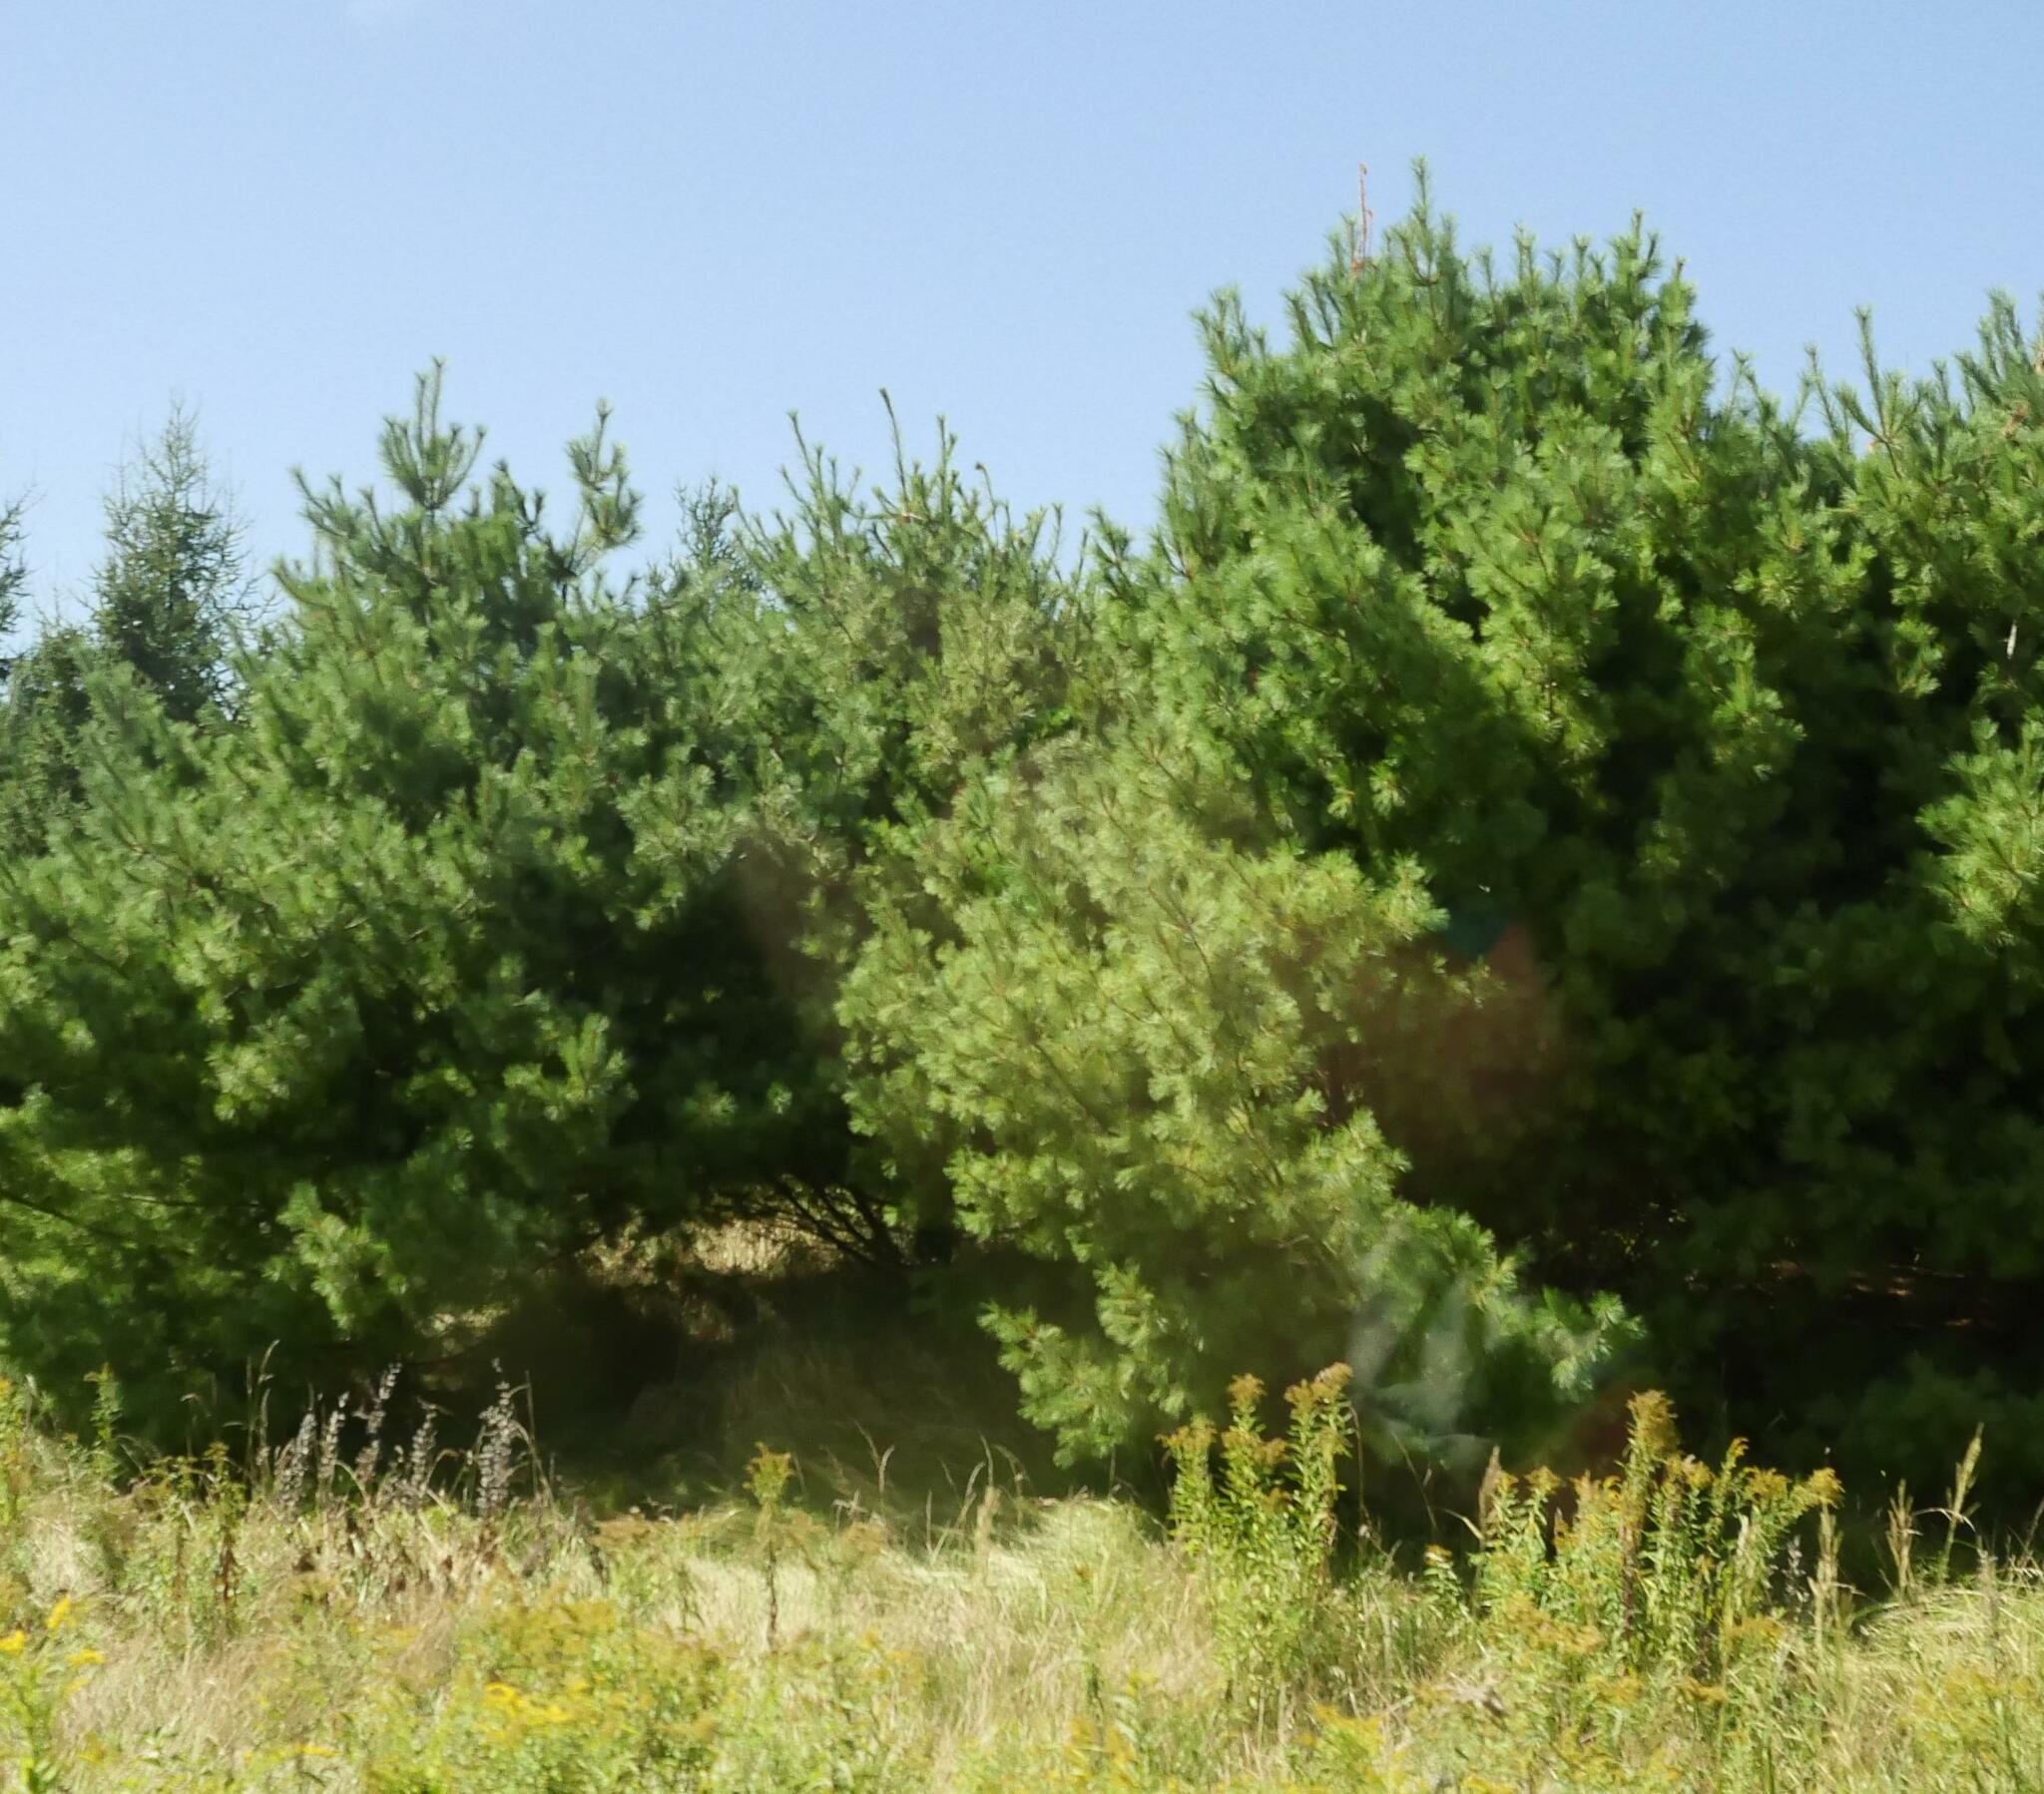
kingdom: Plantae
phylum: Tracheophyta
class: Pinopsida
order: Pinales
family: Pinaceae
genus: Pinus
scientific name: Pinus strobus
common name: Weymouth pine
